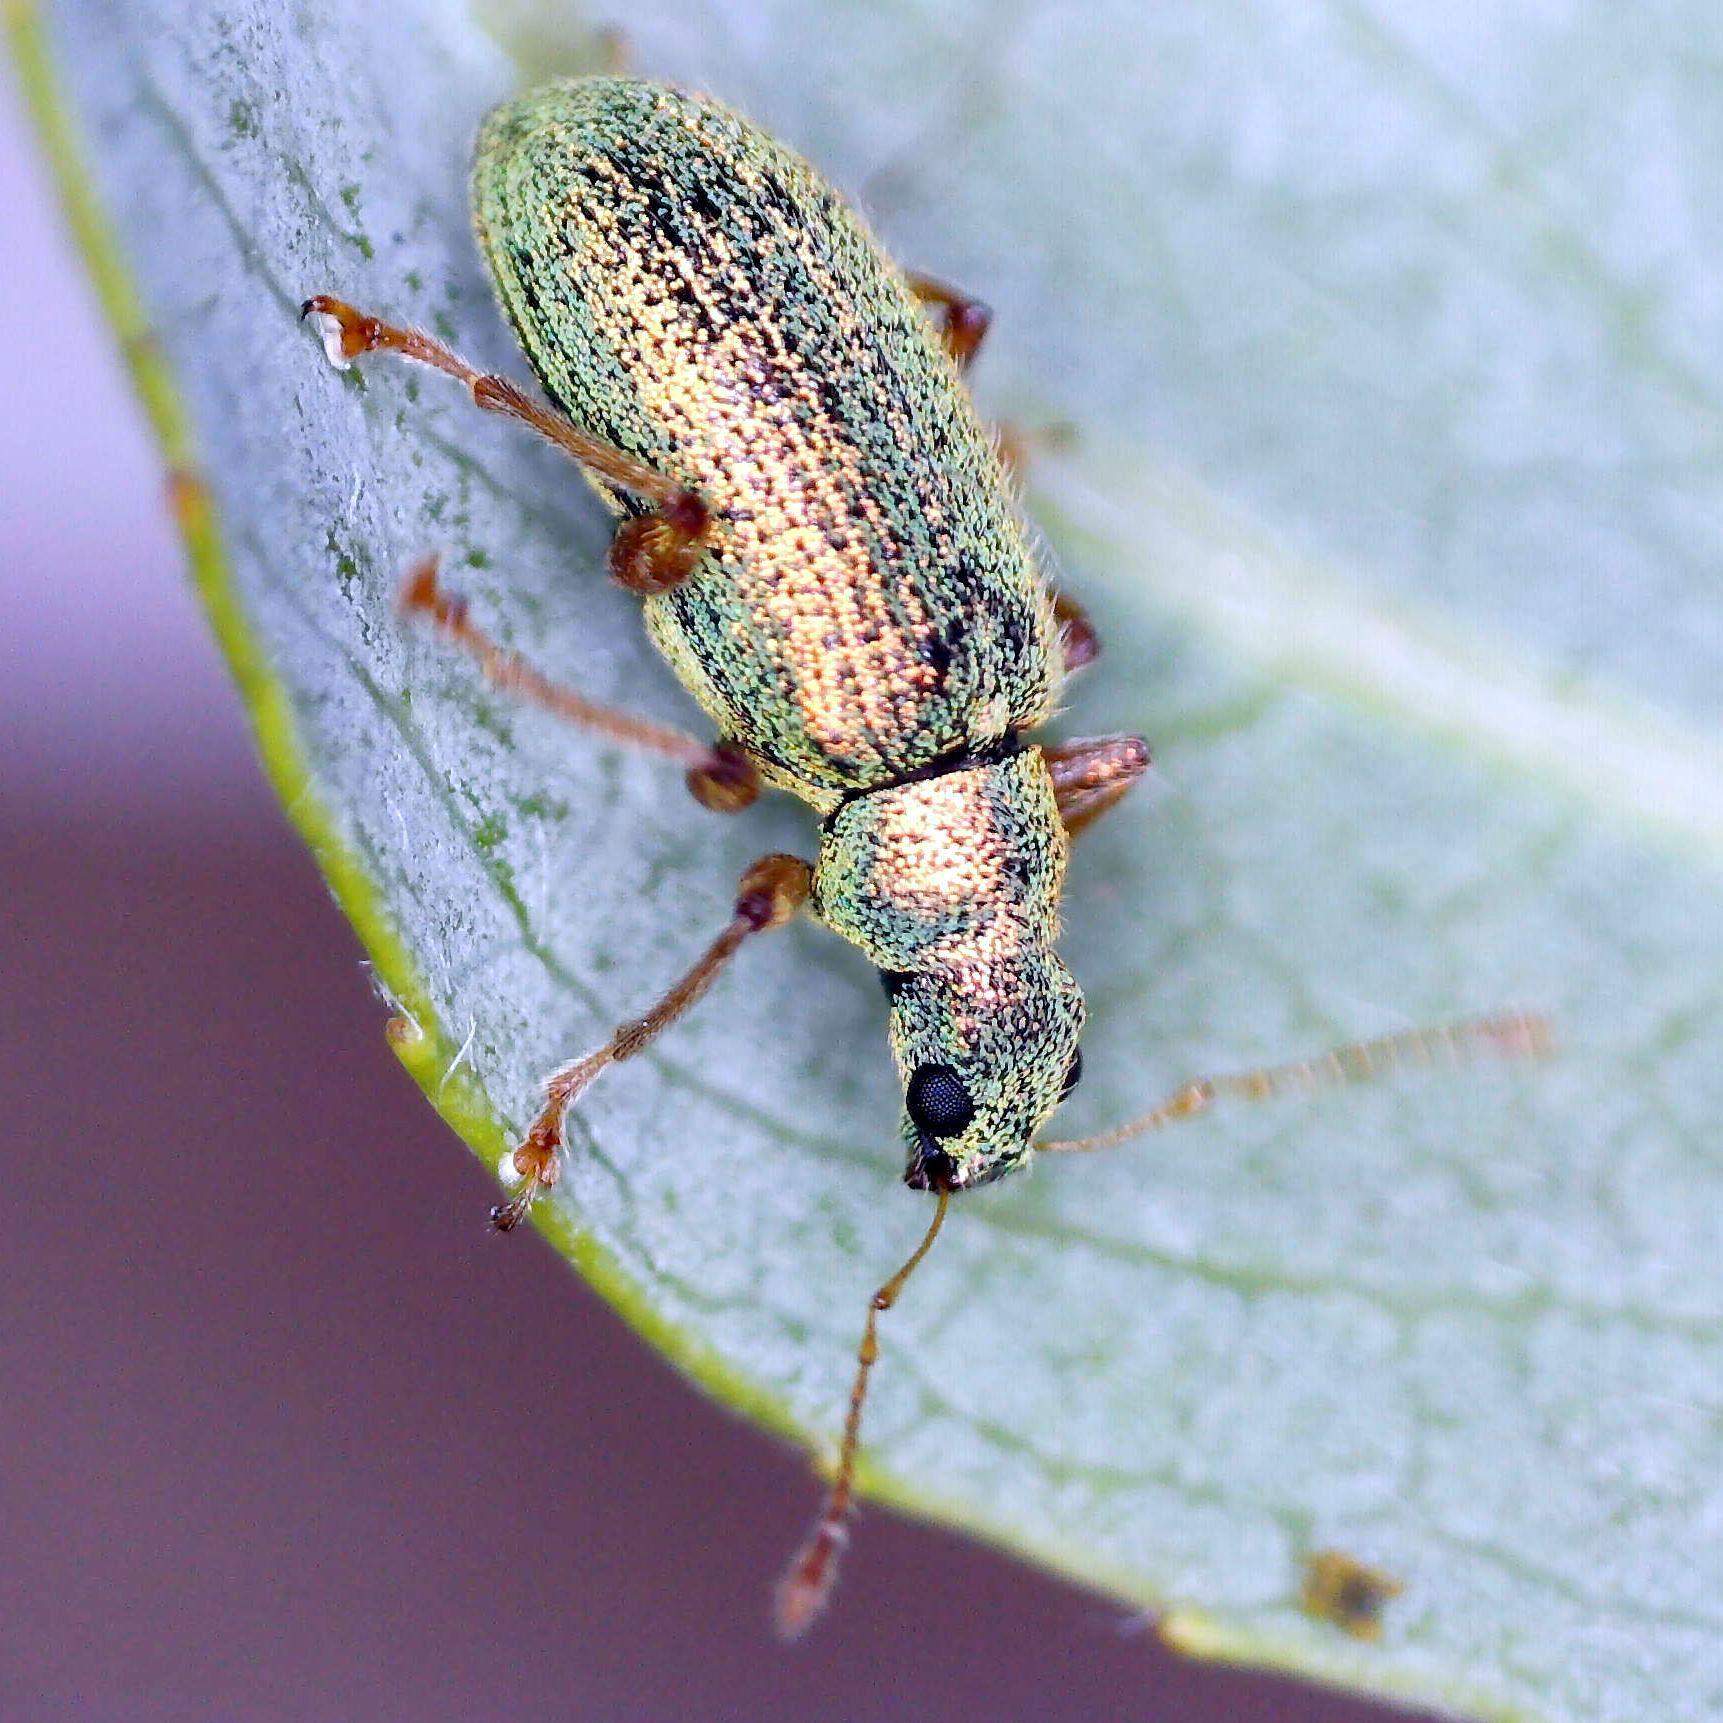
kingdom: Animalia
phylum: Arthropoda
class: Insecta
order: Coleoptera
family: Curculionidae
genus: Polydrusus
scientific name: Polydrusus pterygomalis
